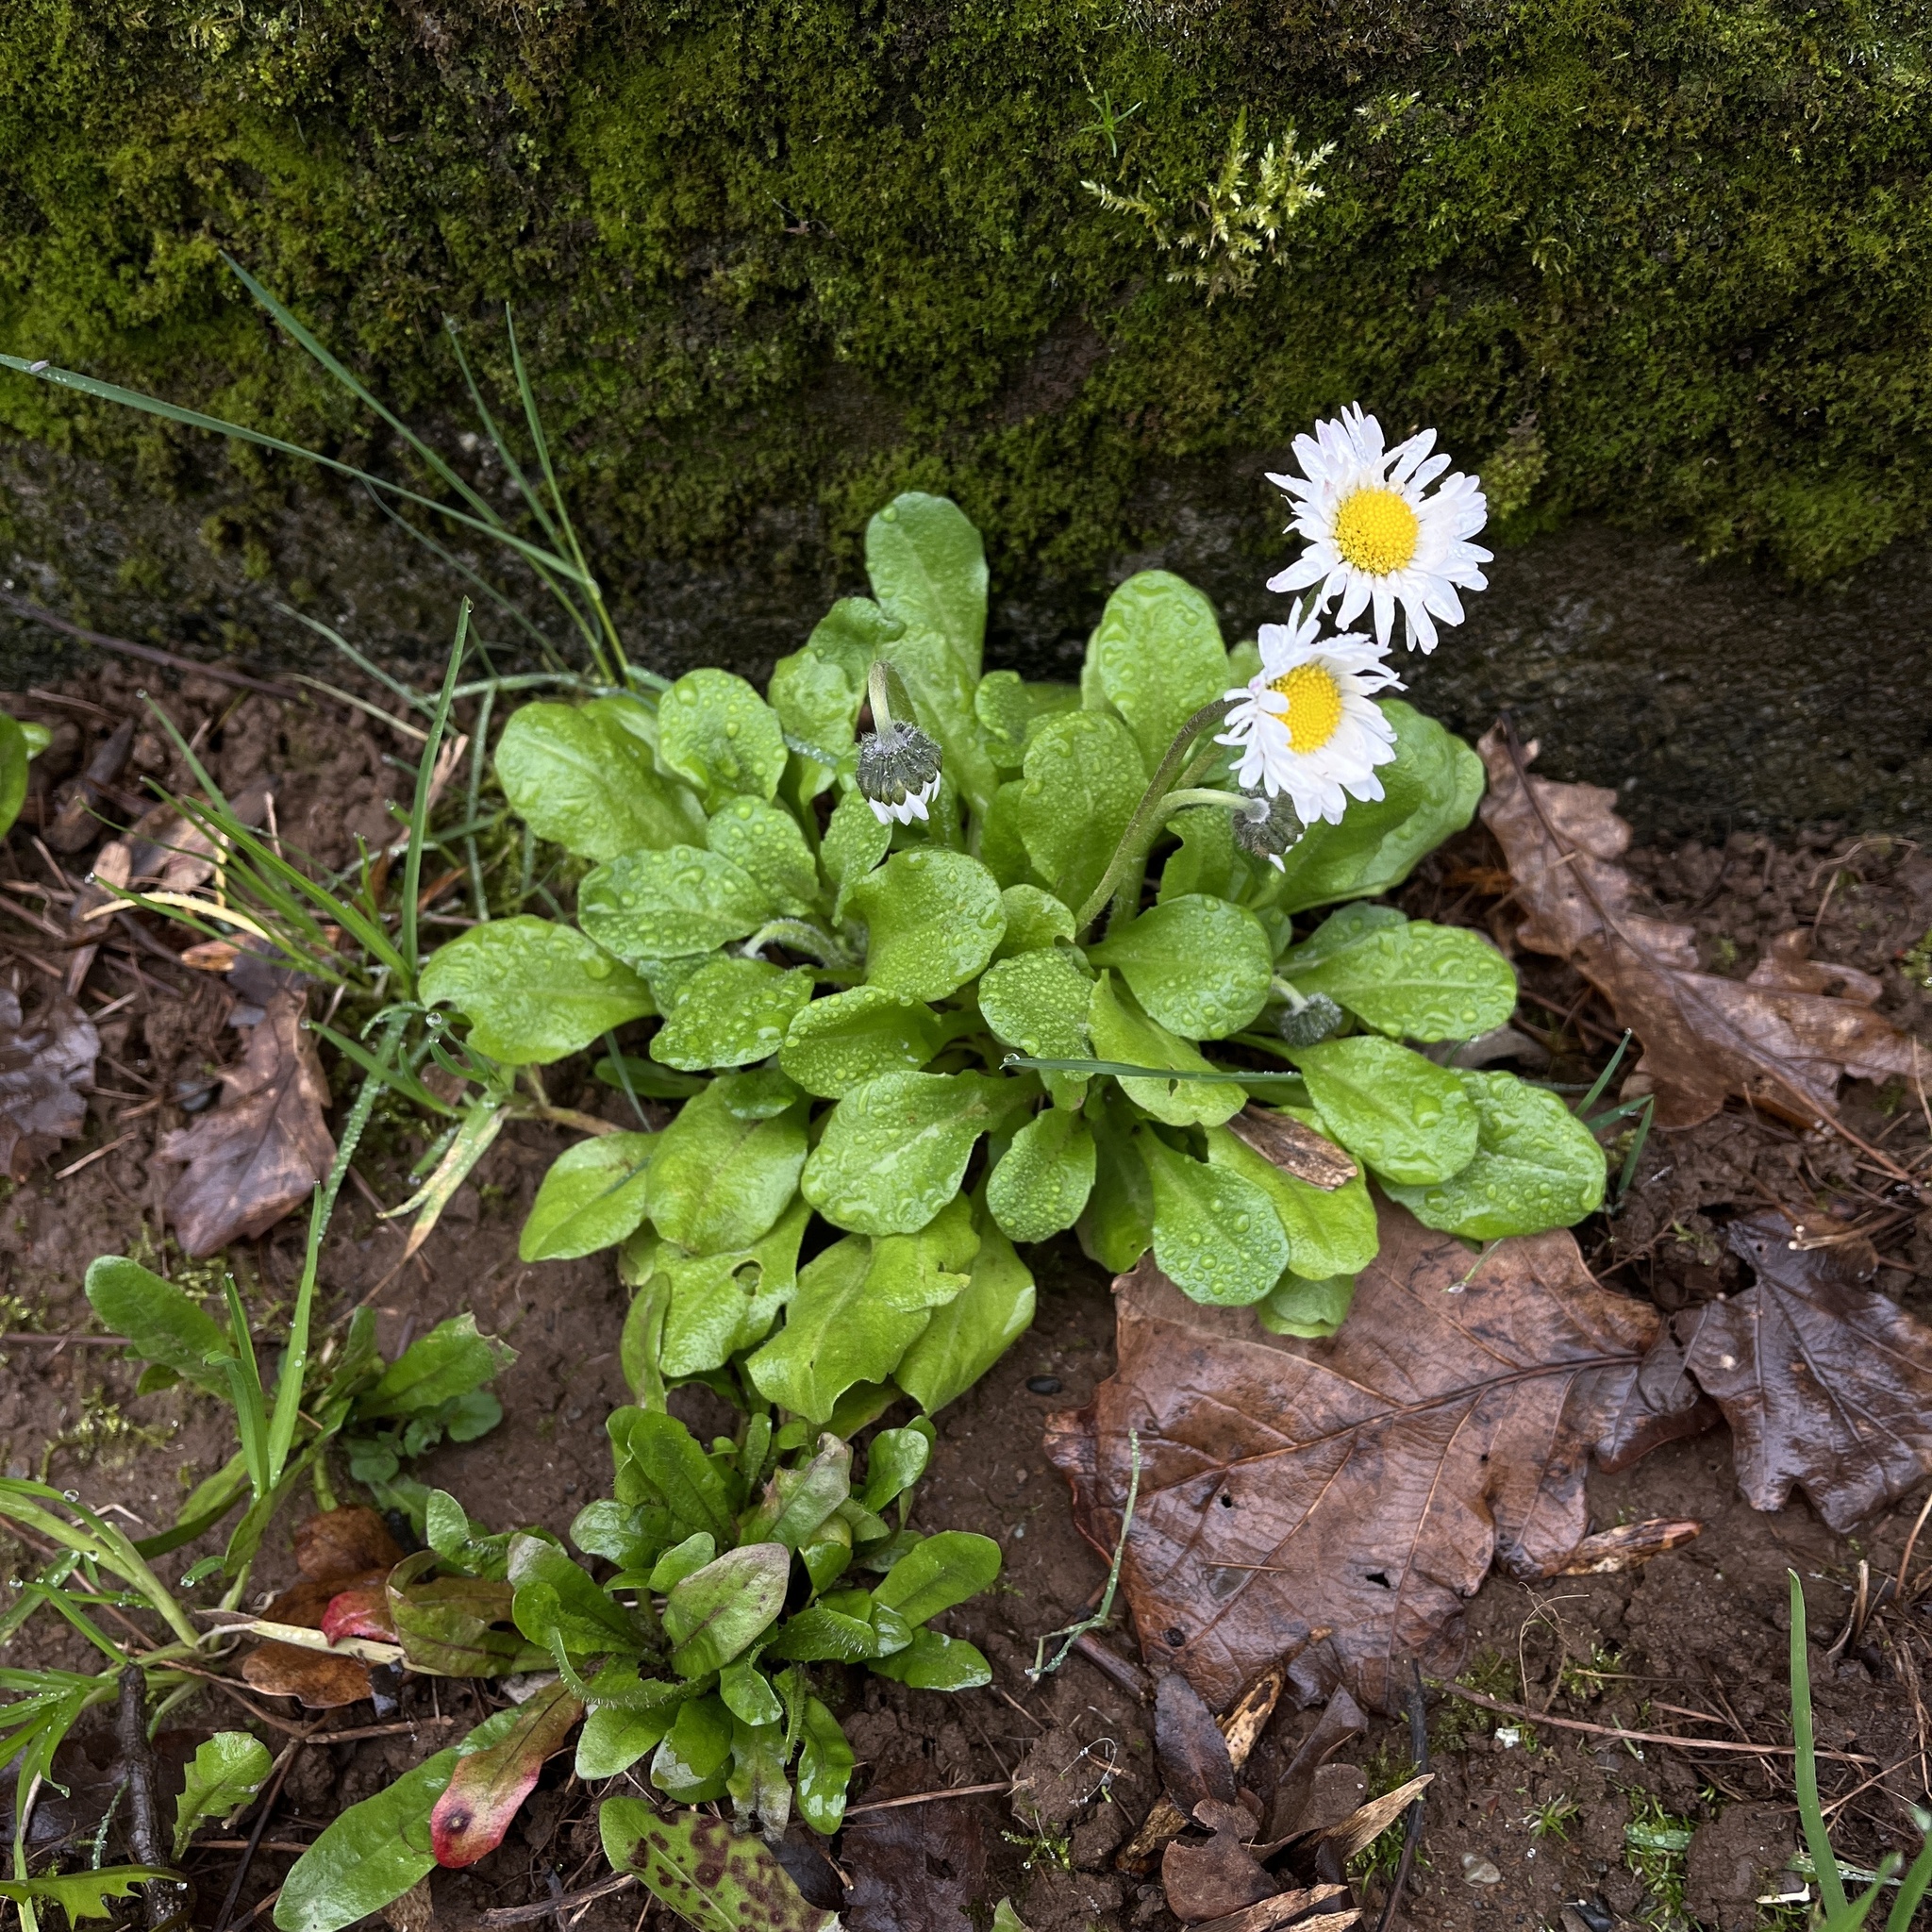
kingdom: Plantae
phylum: Tracheophyta
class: Magnoliopsida
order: Asterales
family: Asteraceae
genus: Bellis
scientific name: Bellis perennis
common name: Lawndaisy
